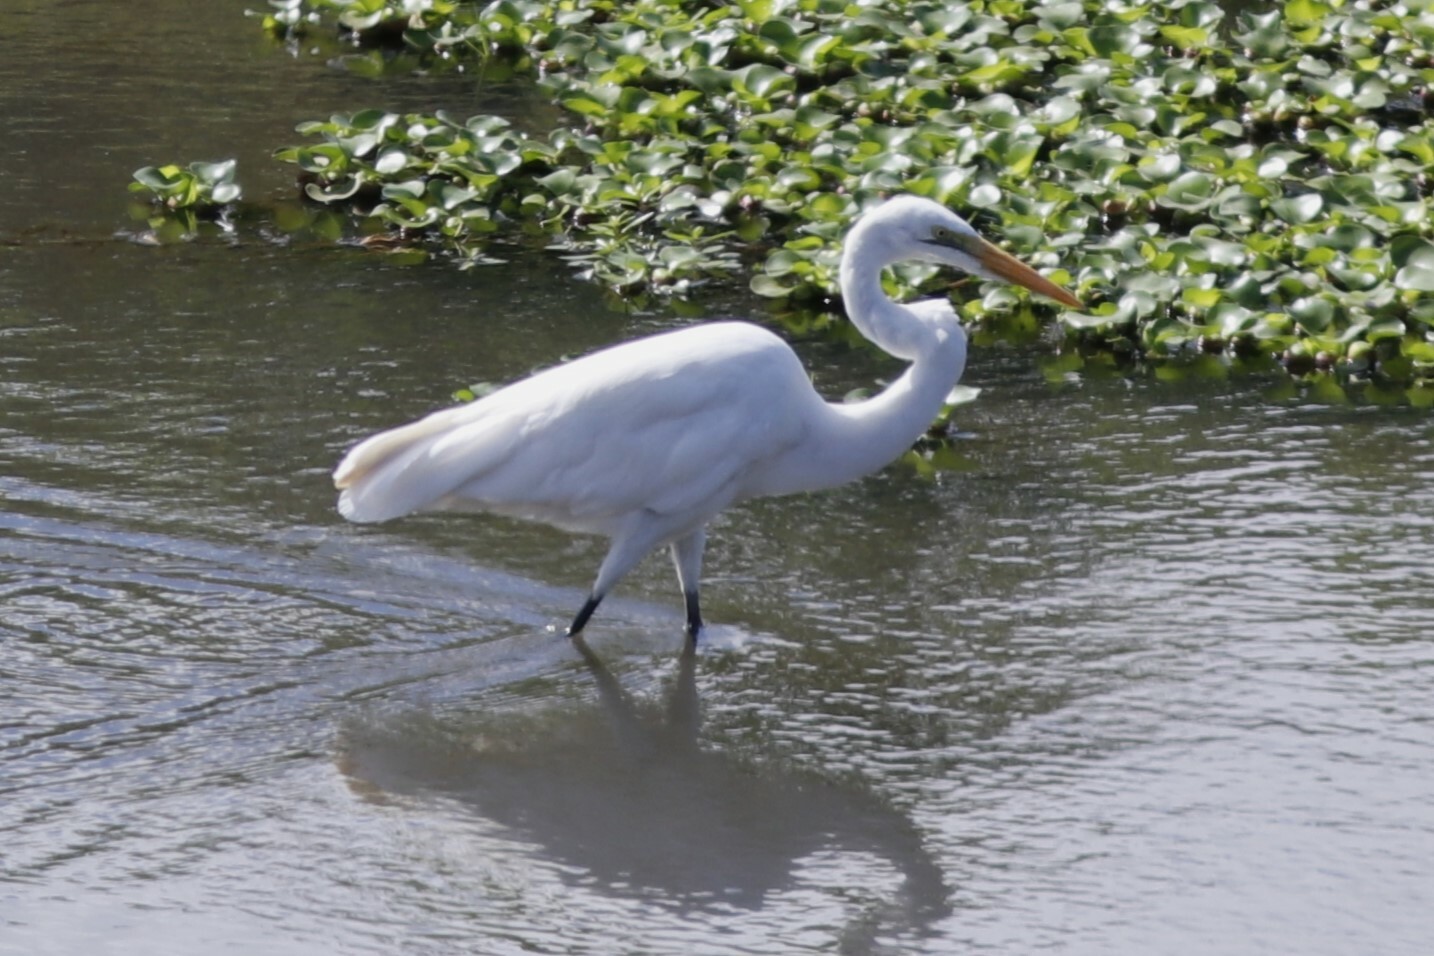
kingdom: Animalia
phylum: Chordata
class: Aves
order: Pelecaniformes
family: Ardeidae
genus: Ardea
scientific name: Ardea alba
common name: Great egret
